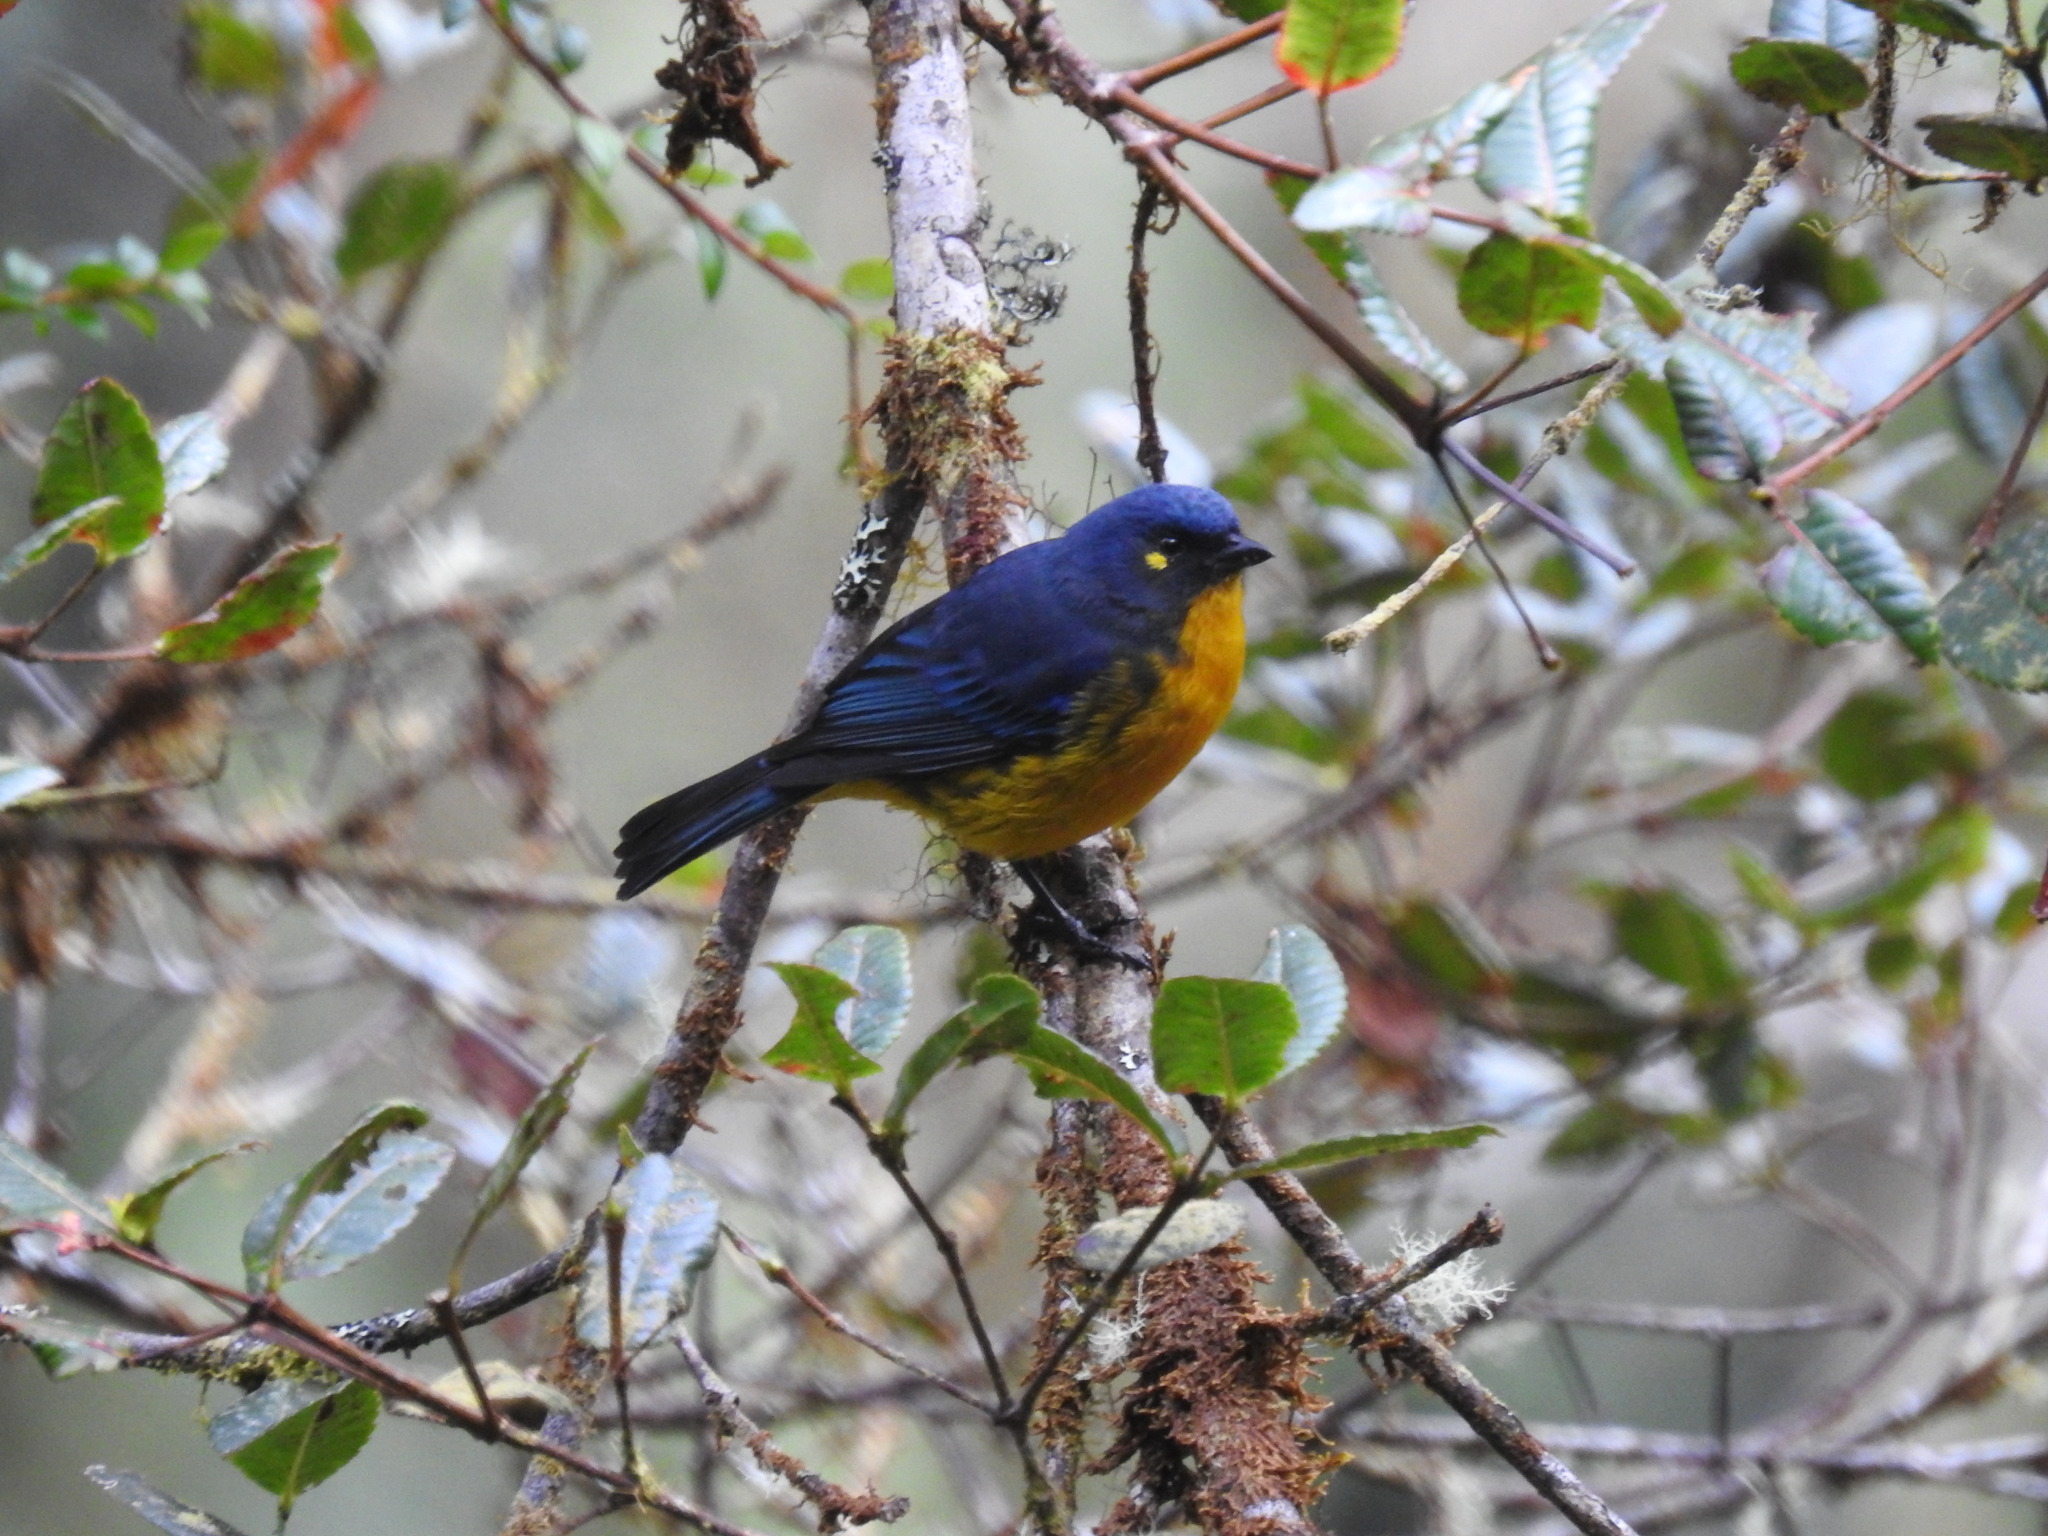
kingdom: Animalia
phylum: Chordata
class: Aves
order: Passeriformes
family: Thraupidae
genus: Anisognathus
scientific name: Anisognathus lacrymosus
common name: Lacrimose mountain-tanager
